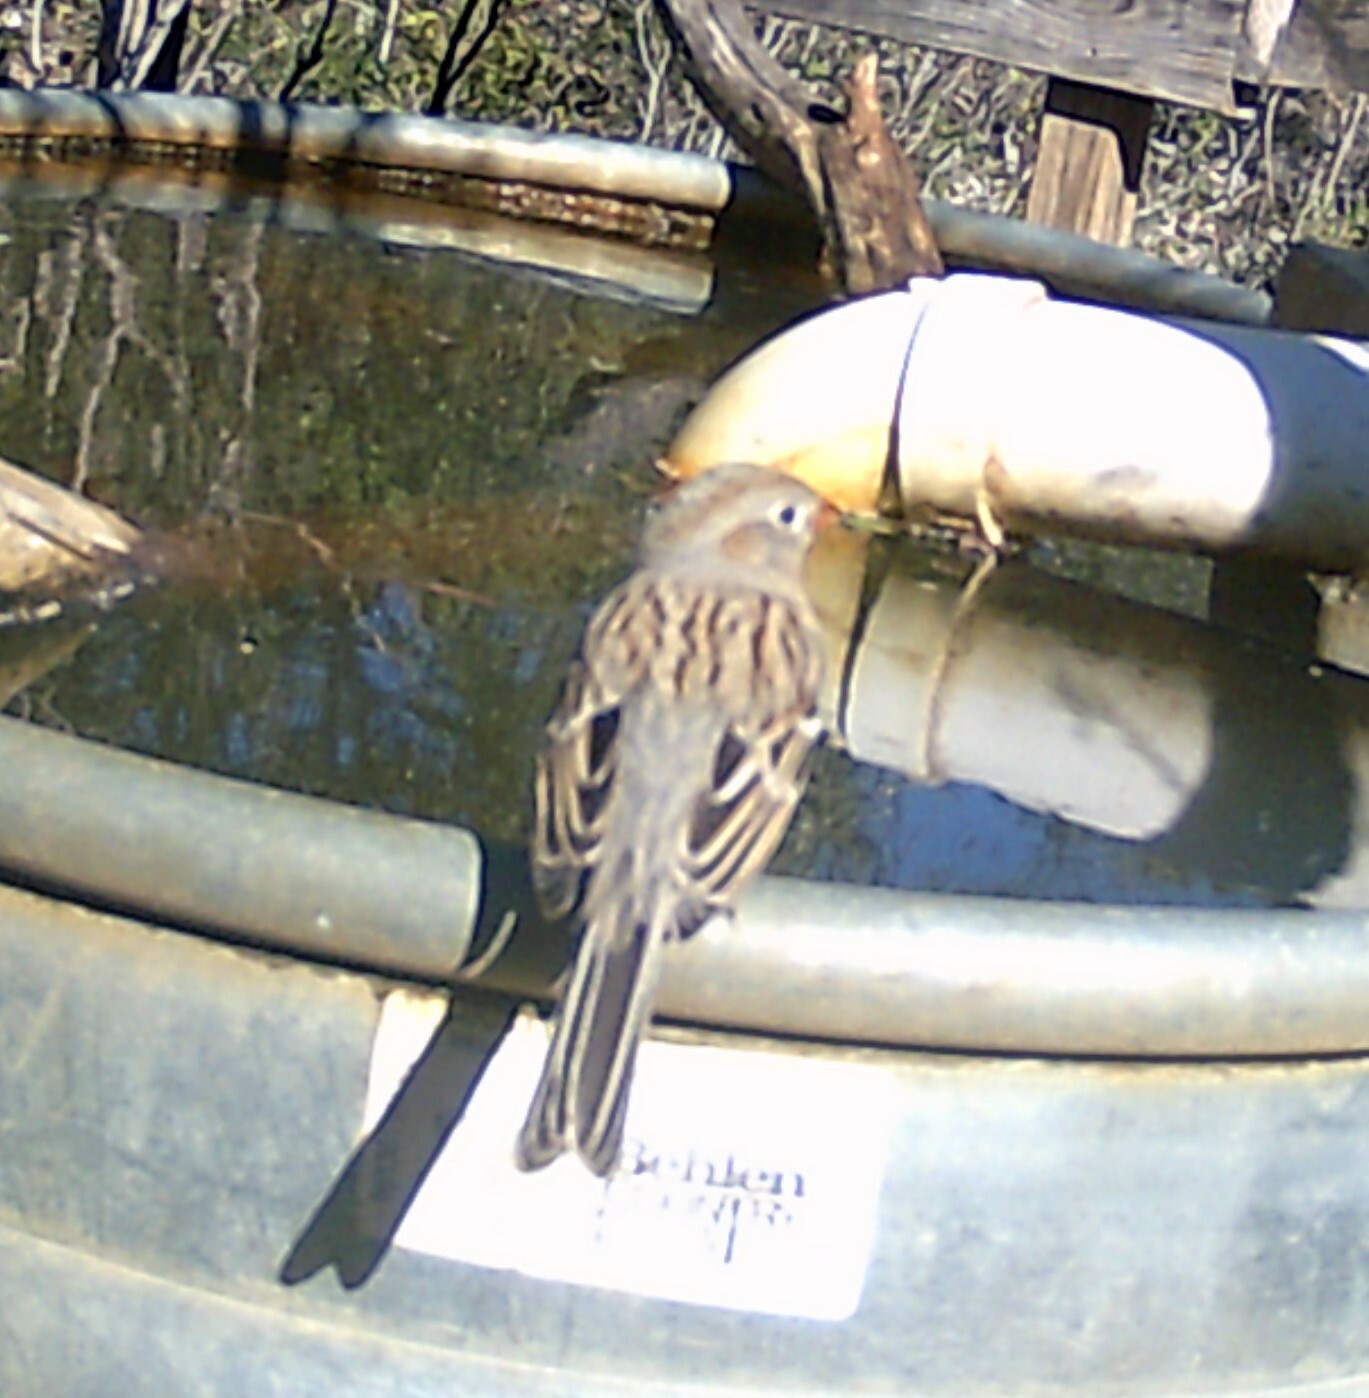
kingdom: Animalia
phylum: Chordata
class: Aves
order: Passeriformes
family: Passerellidae
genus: Spizella
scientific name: Spizella pusilla
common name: Field sparrow
